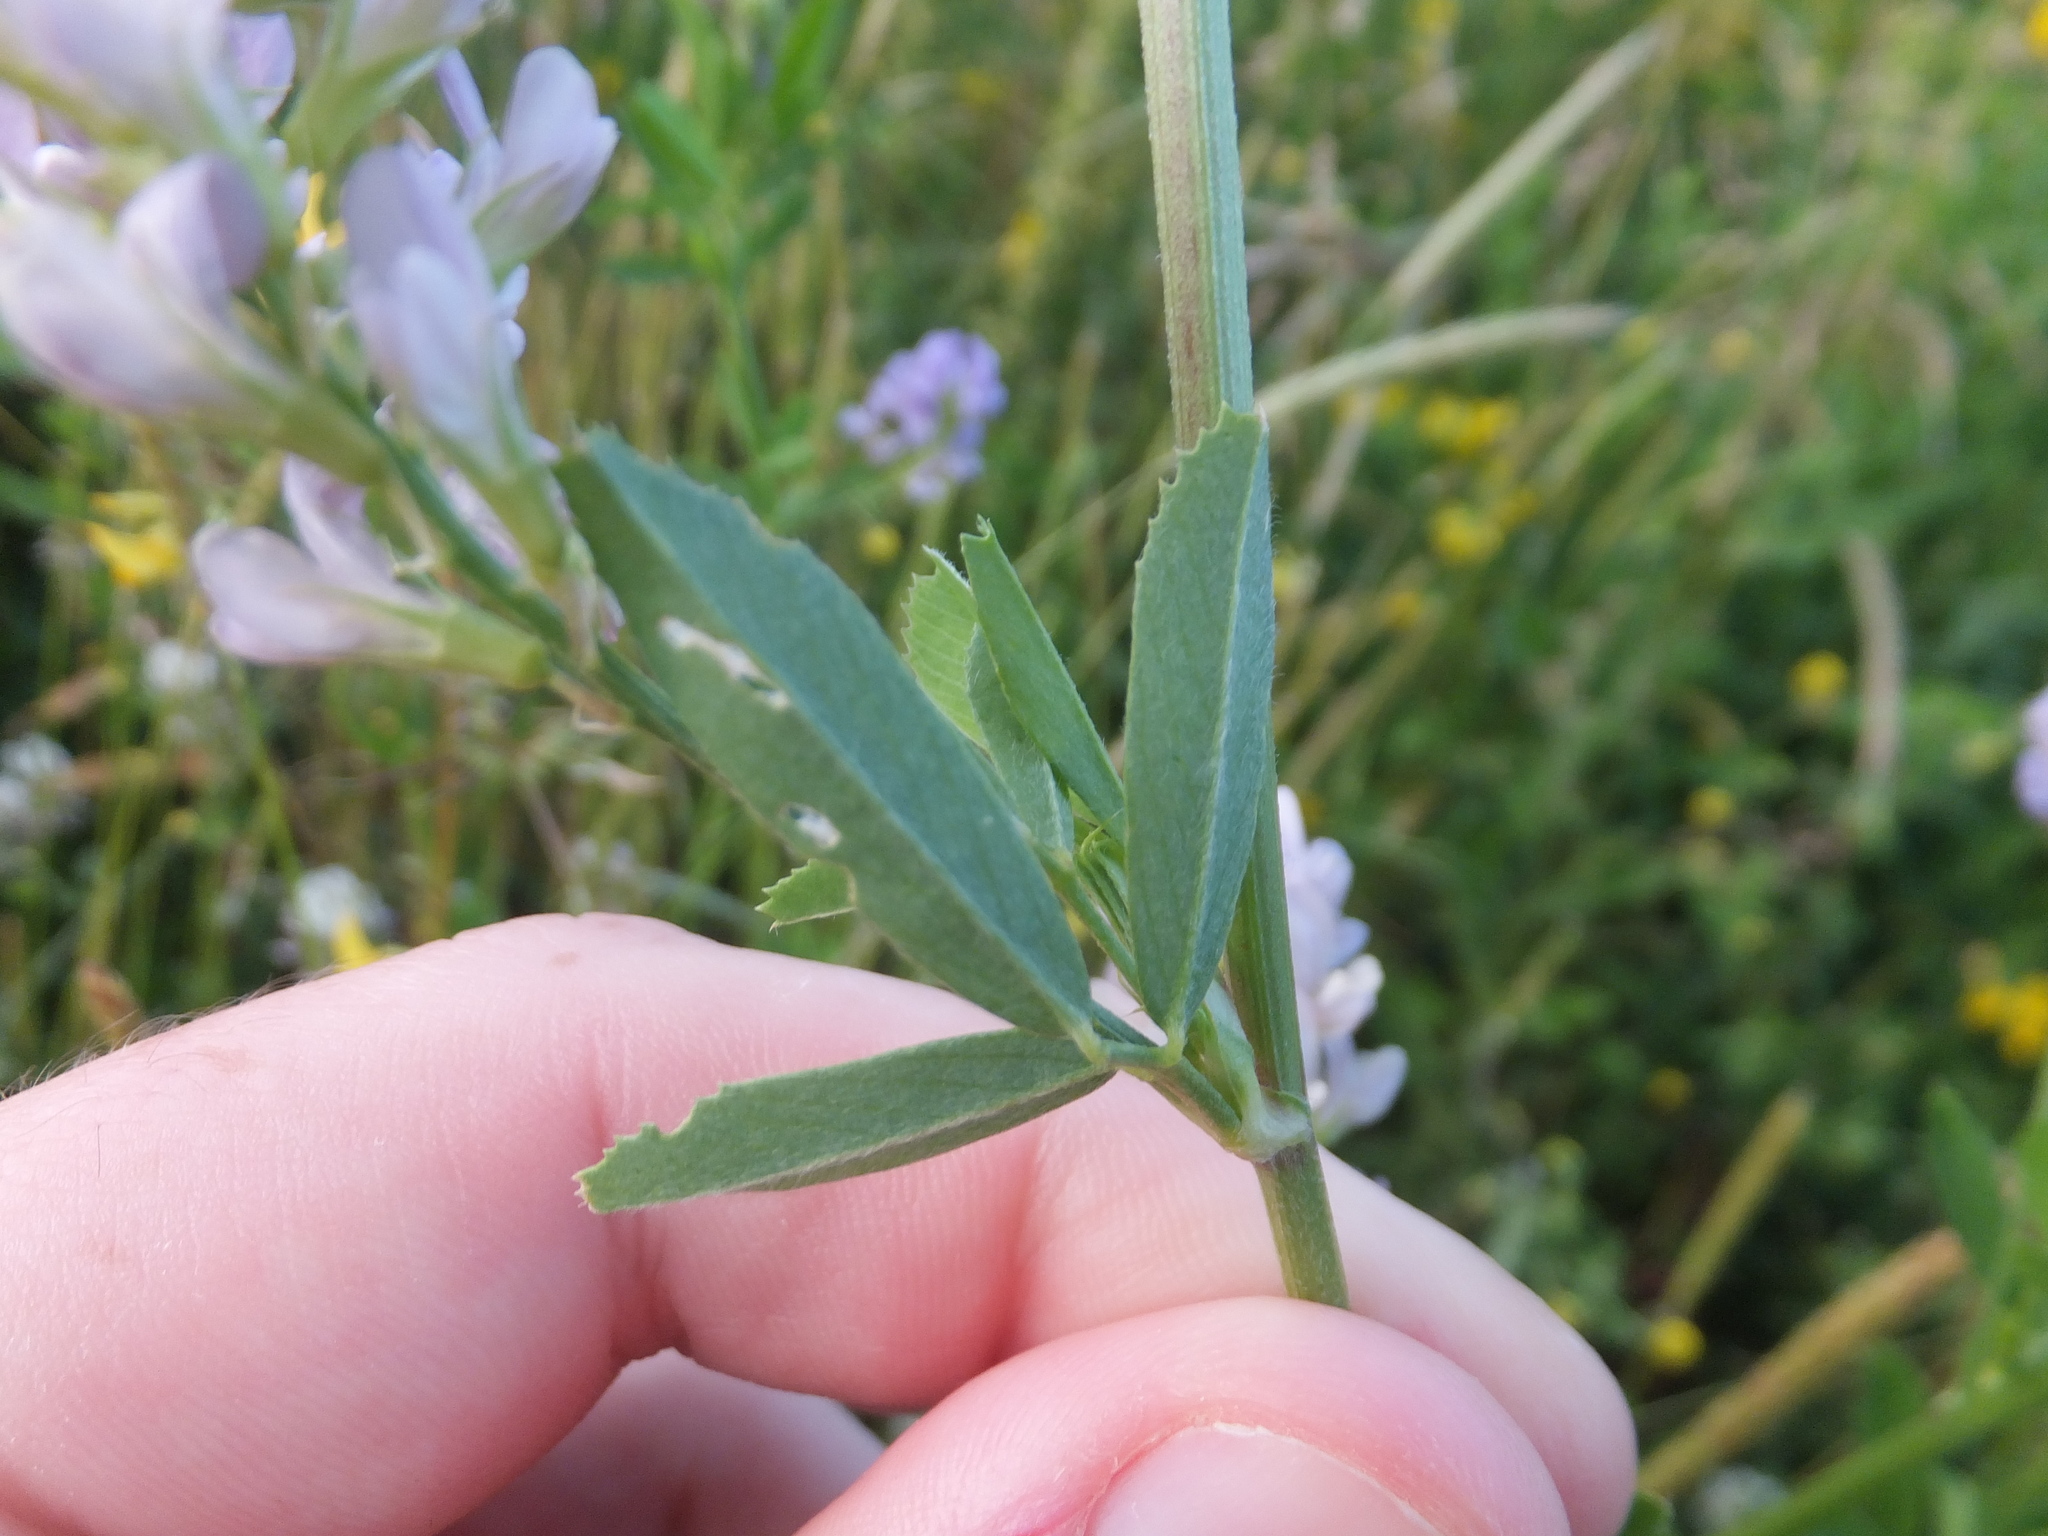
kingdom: Plantae
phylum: Tracheophyta
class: Magnoliopsida
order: Fabales
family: Fabaceae
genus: Medicago
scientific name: Medicago sativa
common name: Alfalfa
